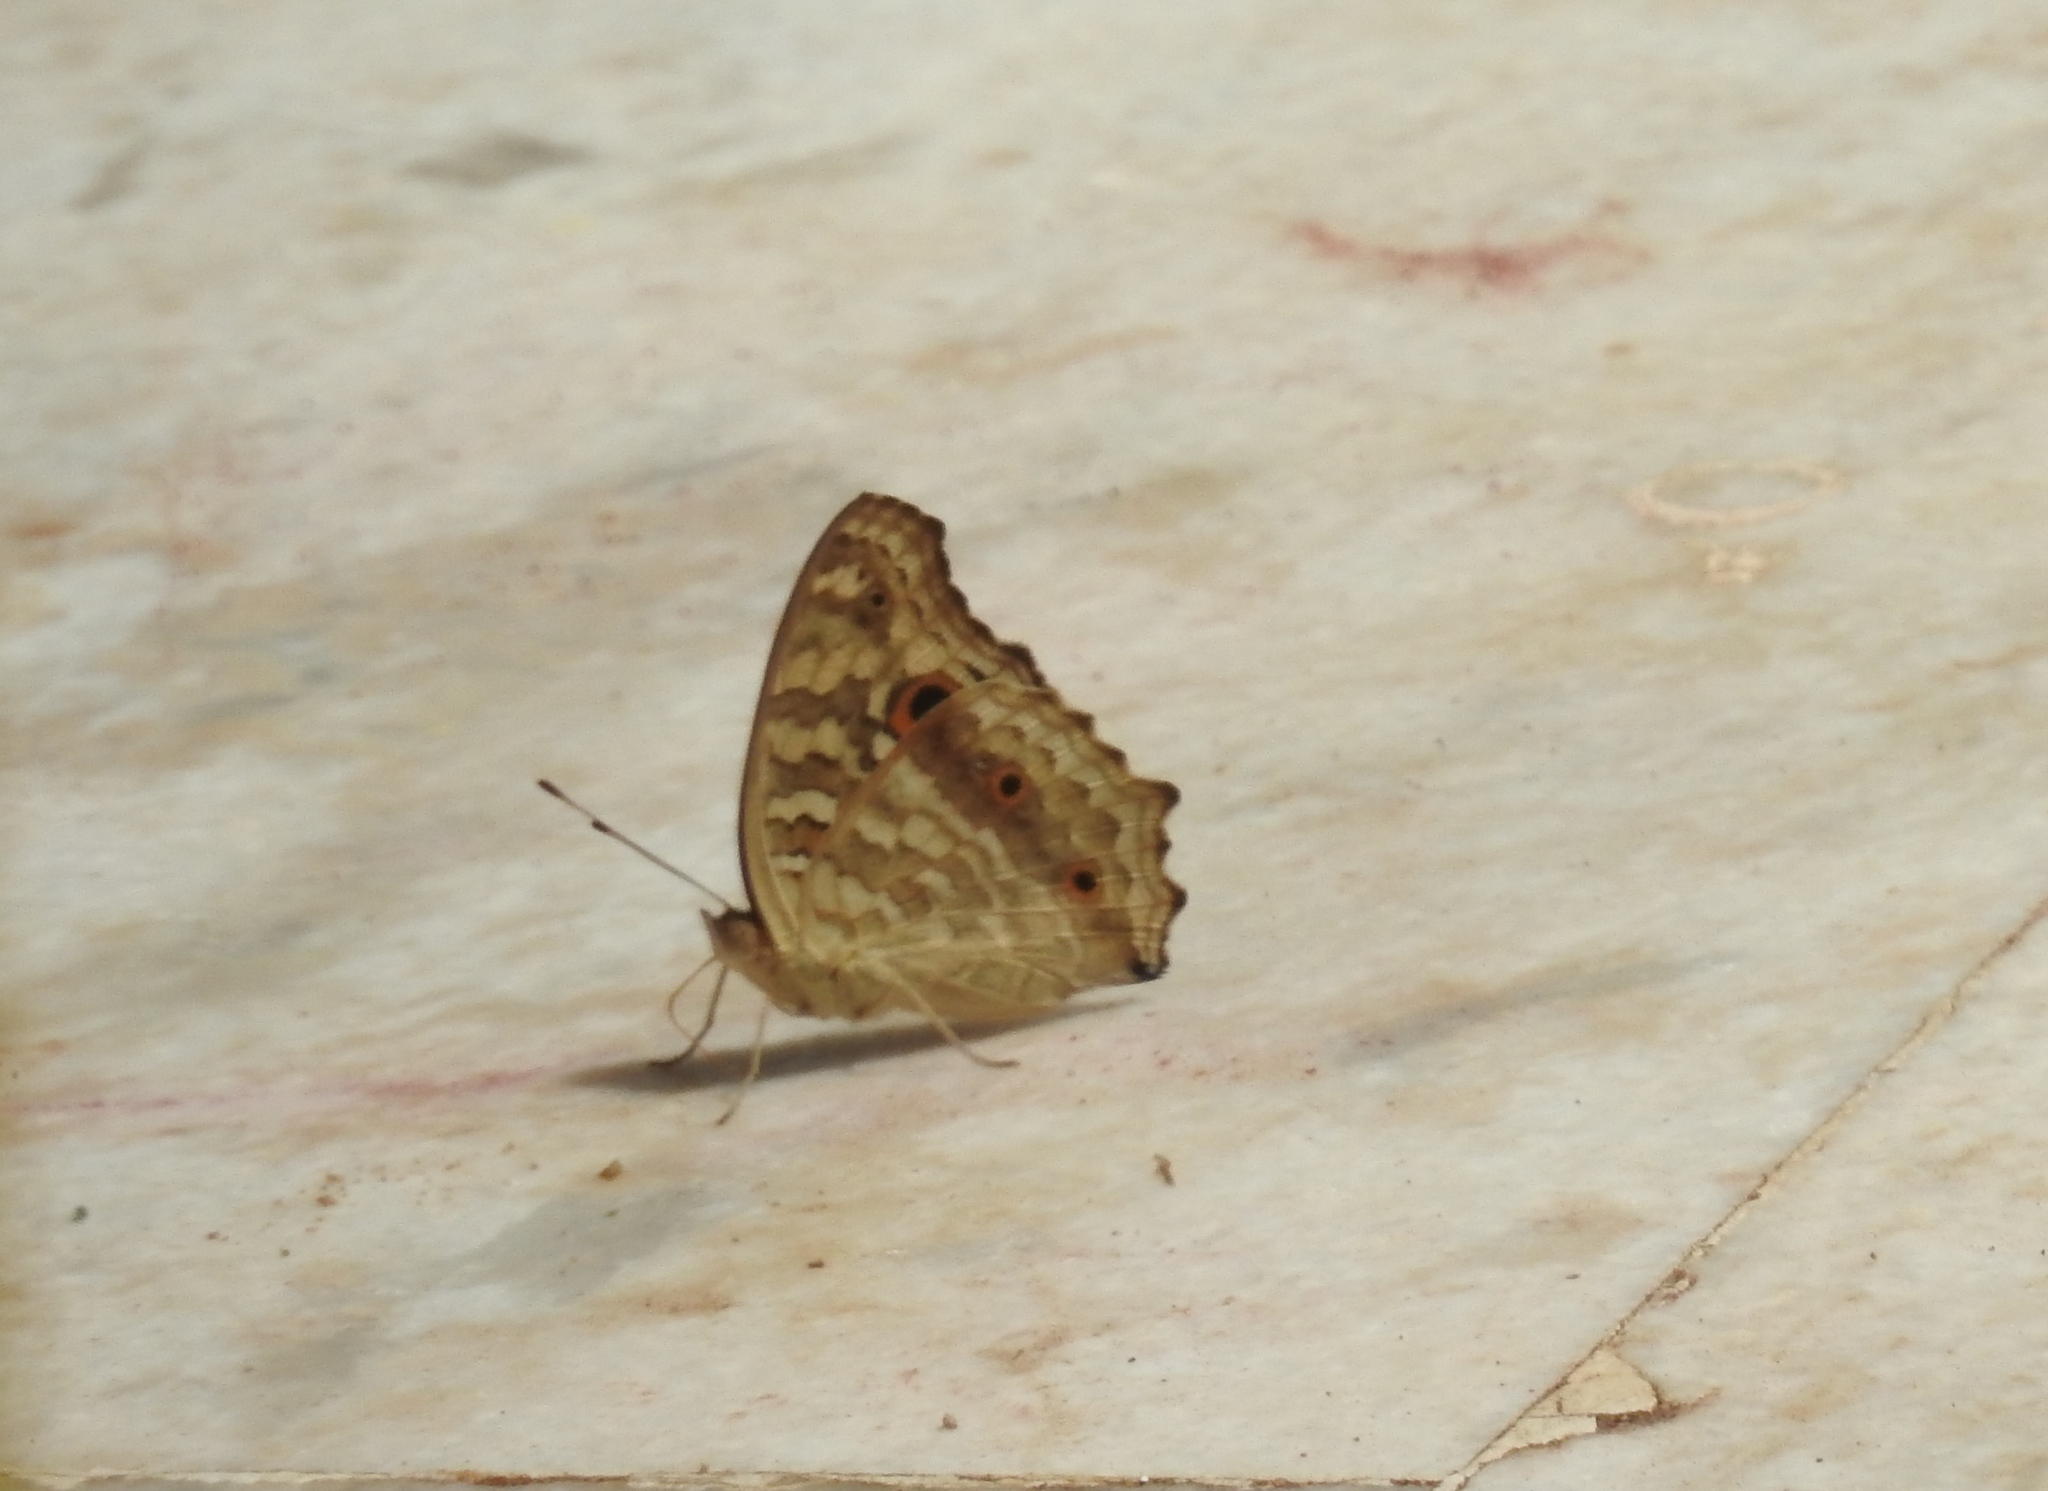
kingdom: Animalia
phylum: Arthropoda
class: Insecta
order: Lepidoptera
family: Nymphalidae
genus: Junonia
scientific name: Junonia lemonias
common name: Lemon pansy
